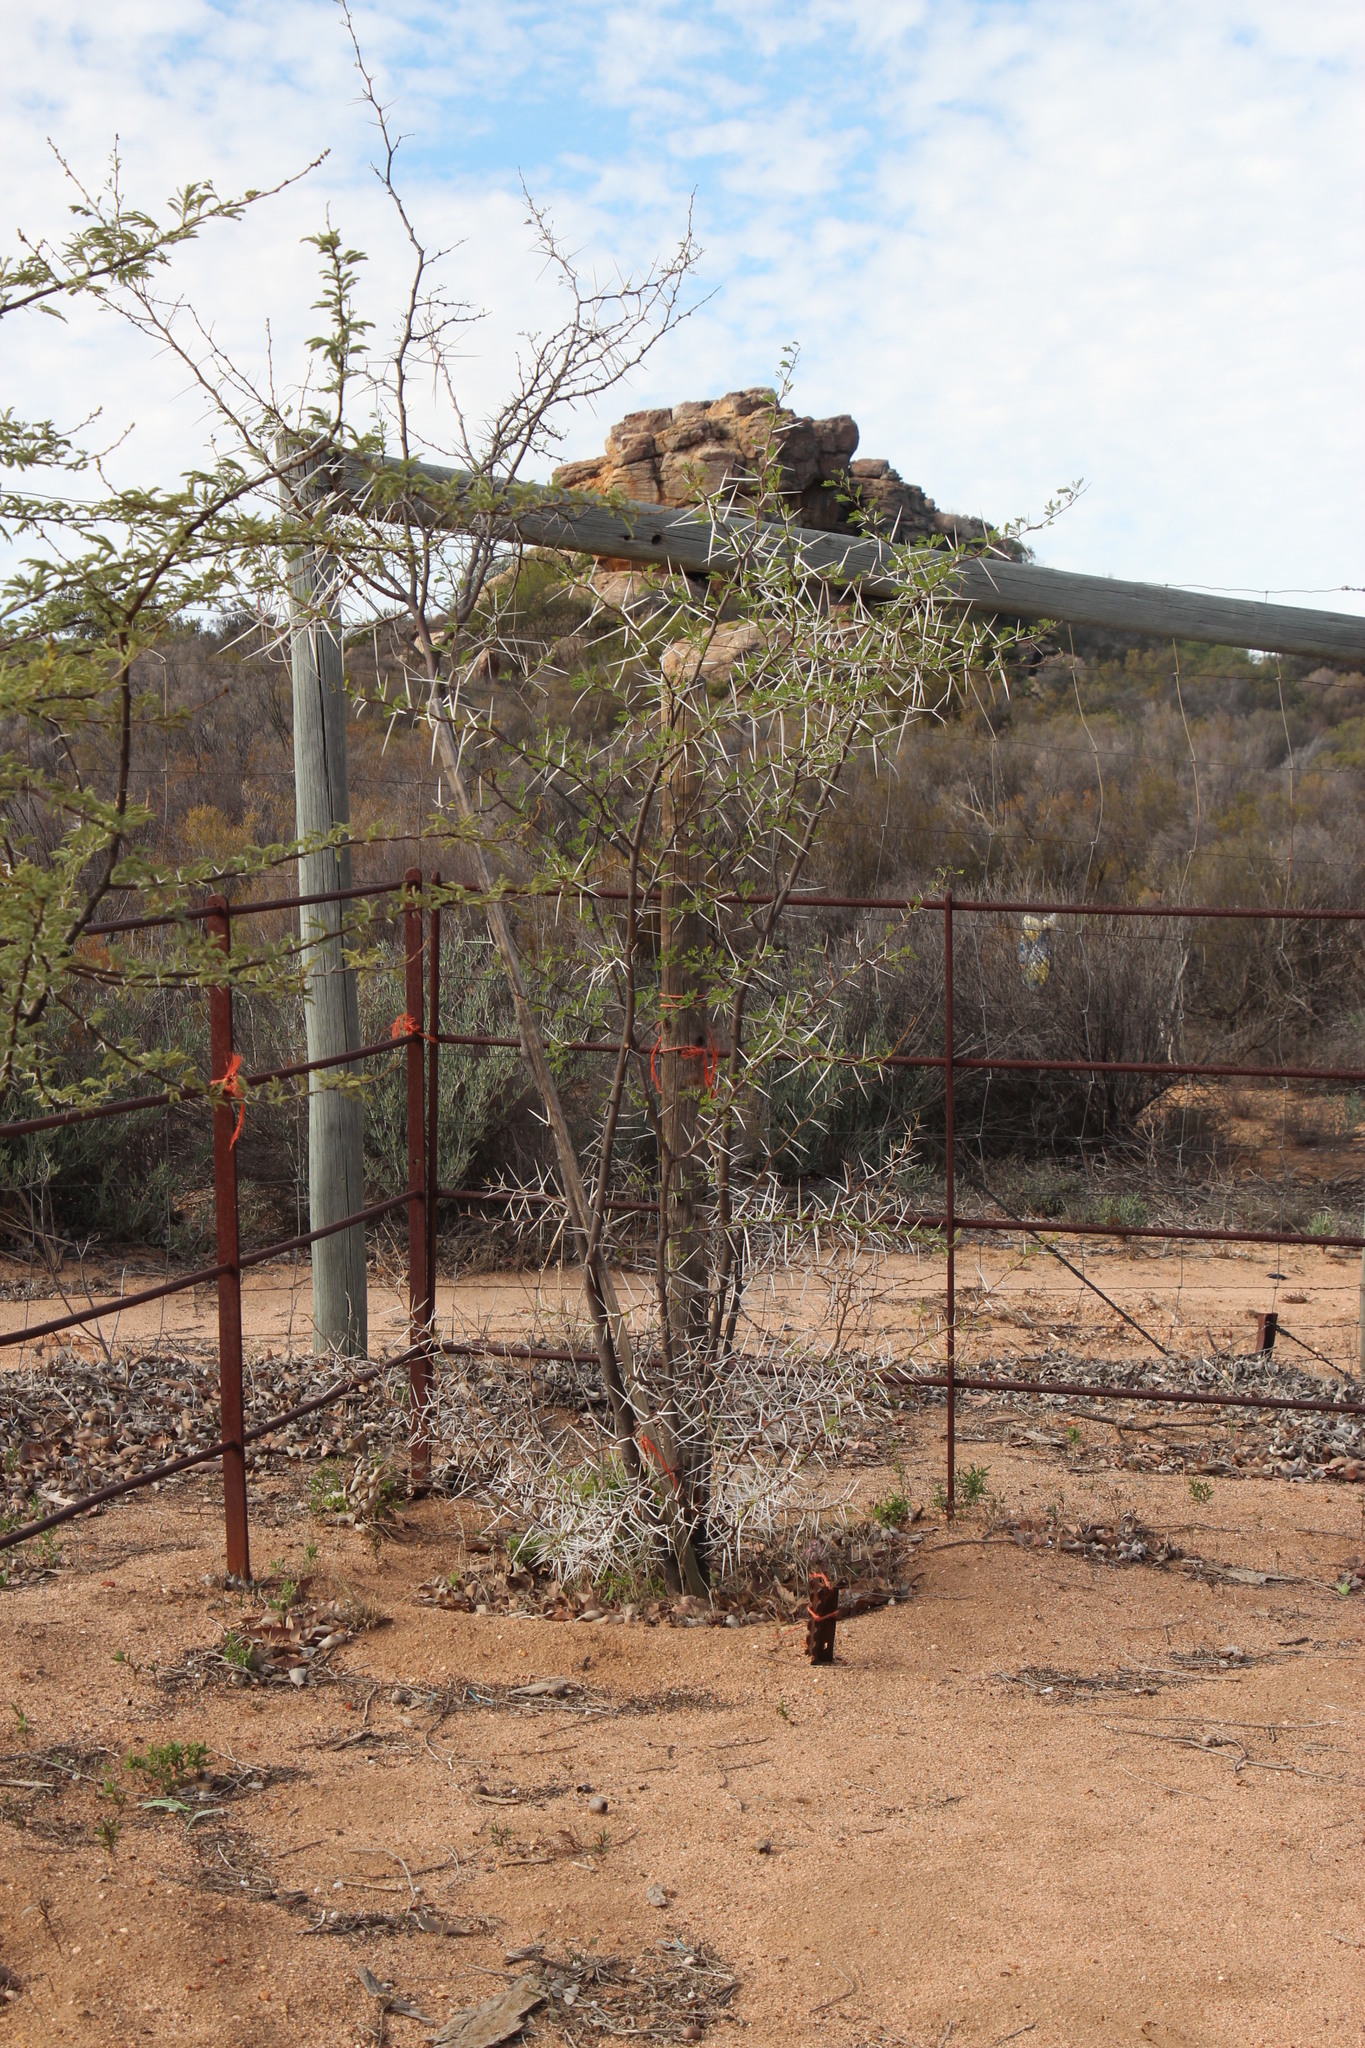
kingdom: Plantae
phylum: Tracheophyta
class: Magnoliopsida
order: Fabales
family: Fabaceae
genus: Vachellia
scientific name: Vachellia karroo
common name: Sweet thorn
